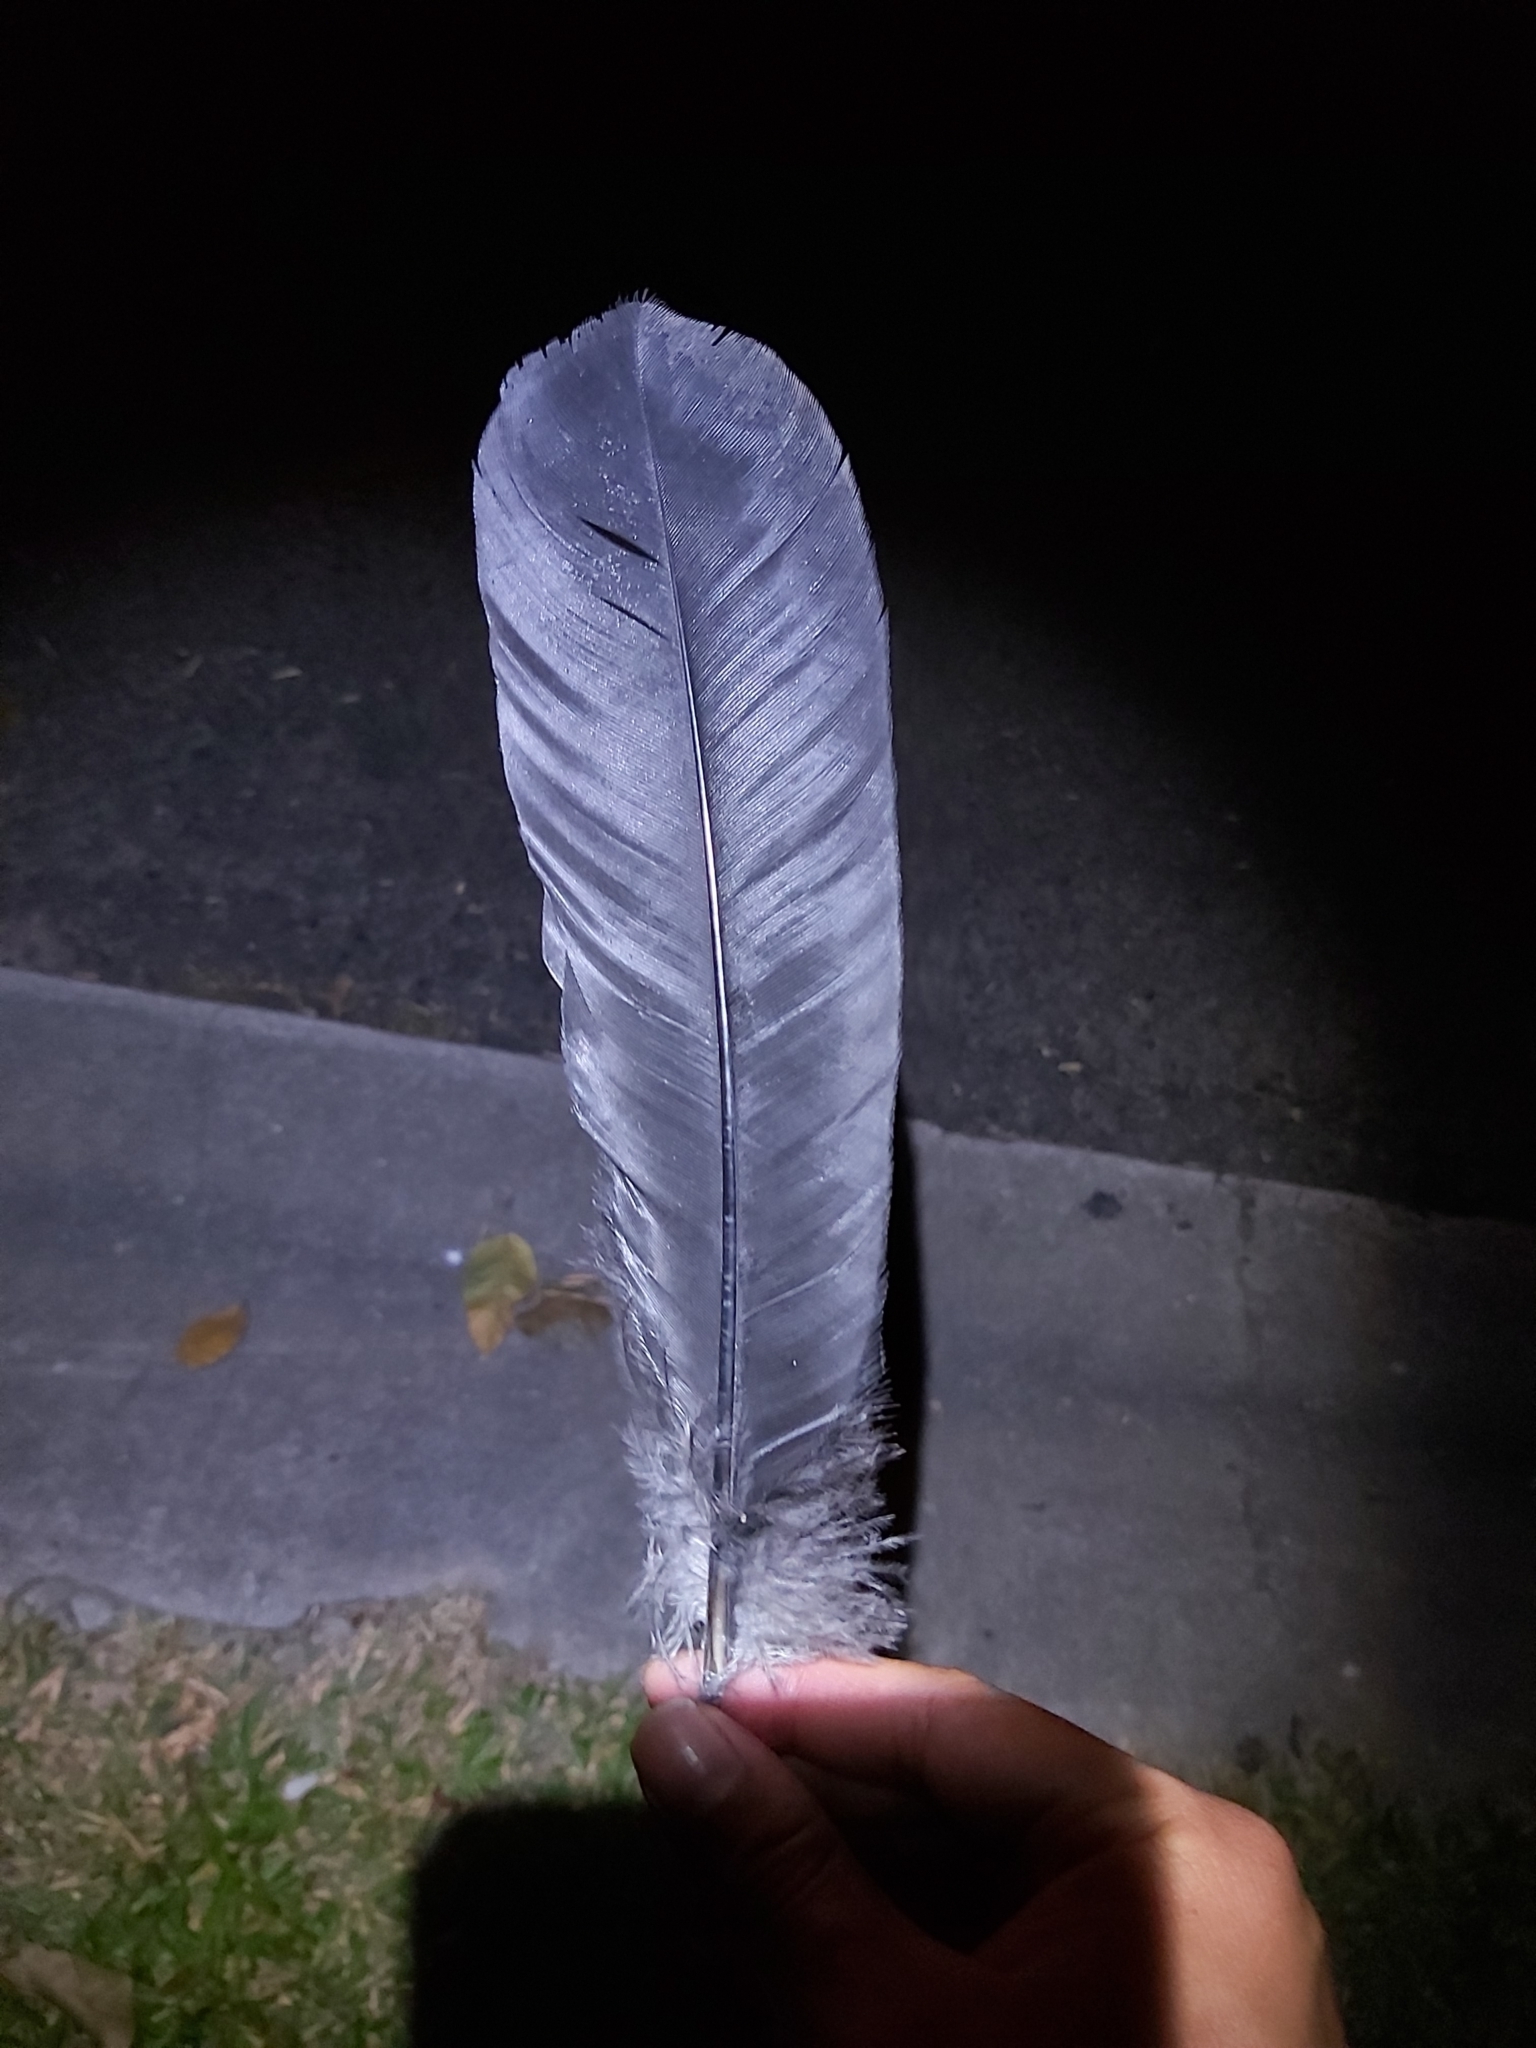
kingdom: Animalia
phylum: Chordata
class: Aves
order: Galliformes
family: Megapodiidae
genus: Alectura
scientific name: Alectura lathami
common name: Australian brushturkey
